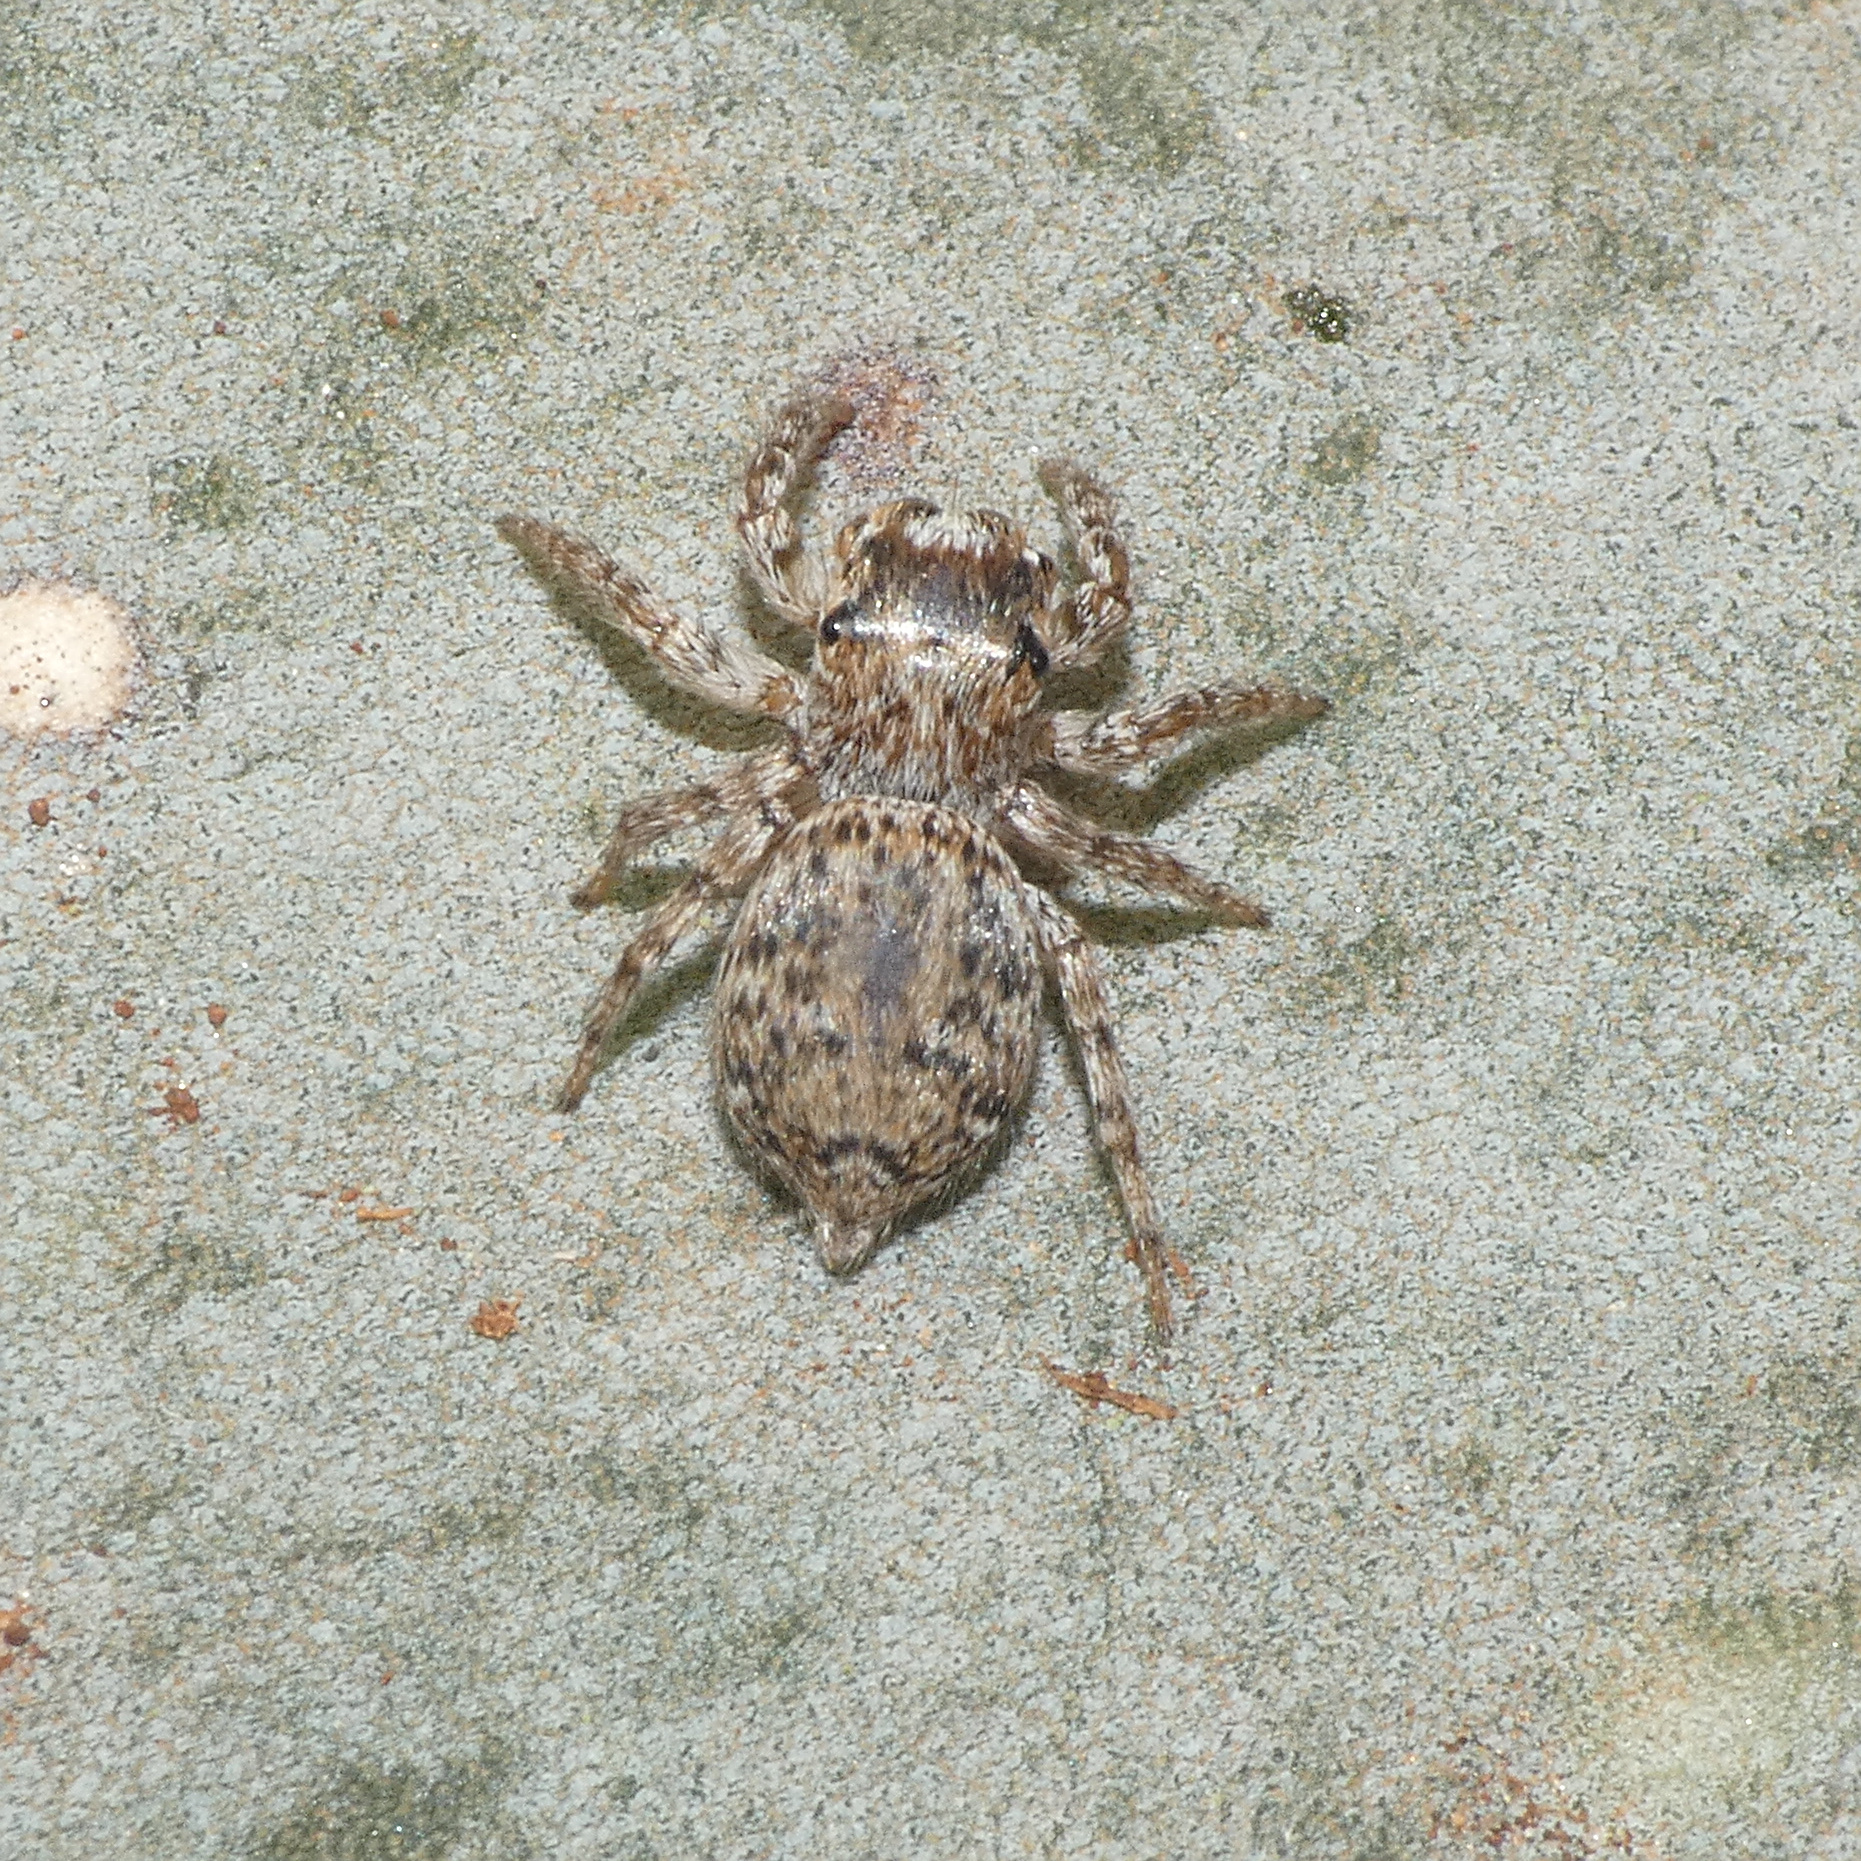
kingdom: Animalia
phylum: Arthropoda
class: Arachnida
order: Araneae
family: Salticidae
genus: Tusitala
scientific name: Tusitala hirsuta
